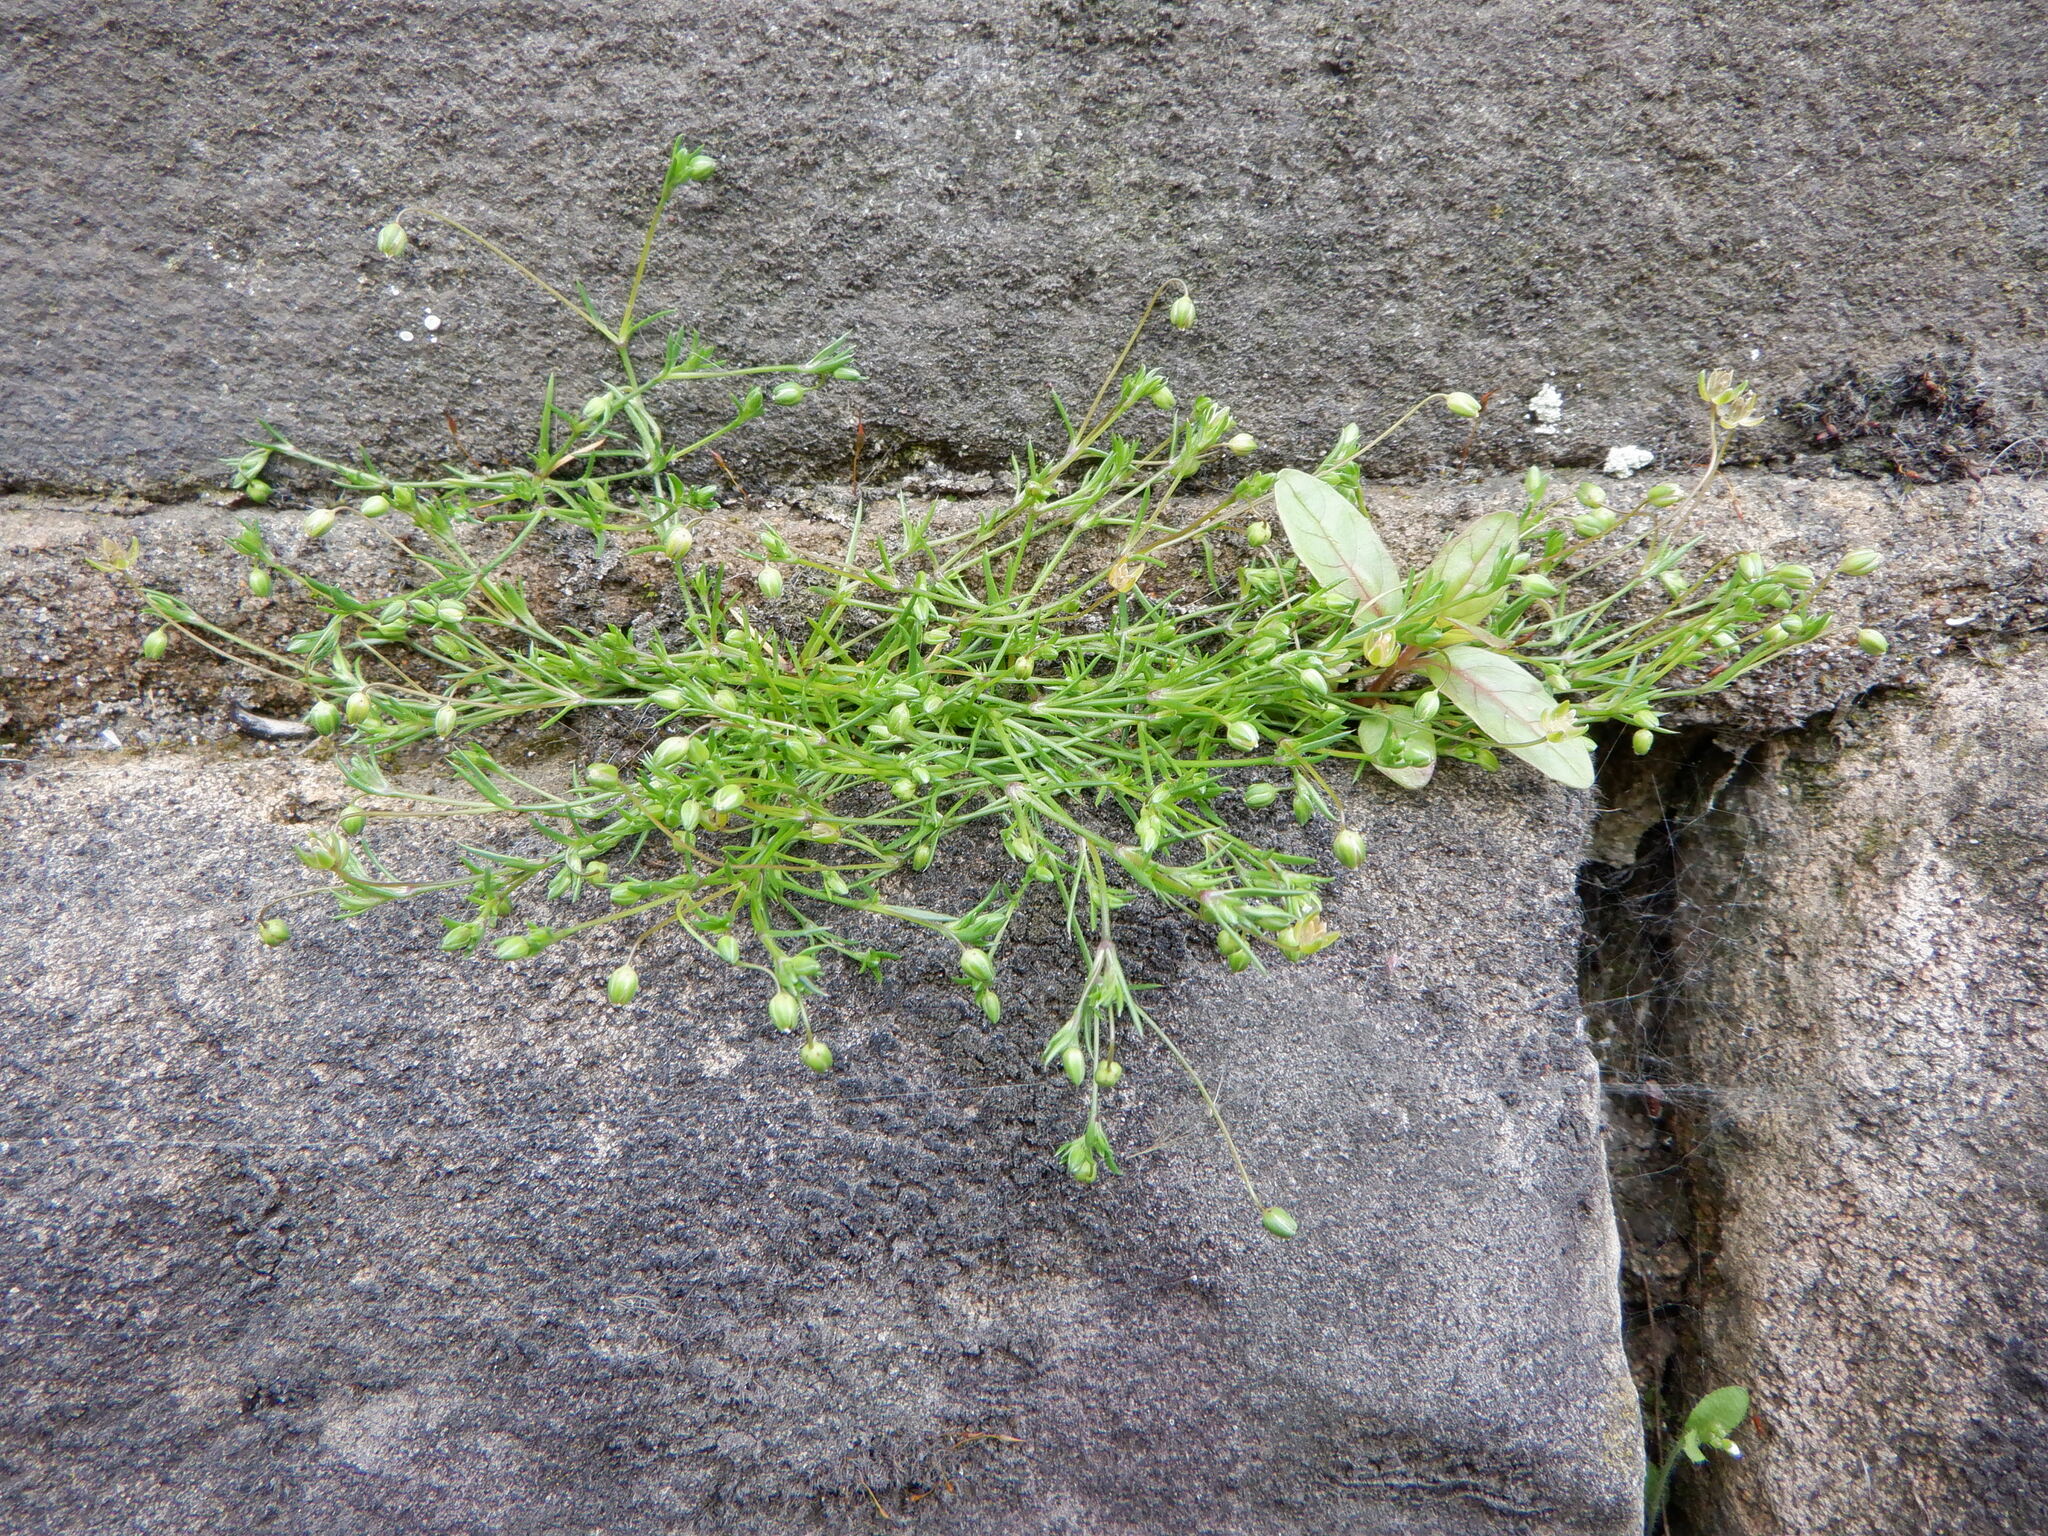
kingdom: Plantae
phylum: Tracheophyta
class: Magnoliopsida
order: Caryophyllales
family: Caryophyllaceae
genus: Sagina
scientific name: Sagina procumbens
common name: Procumbent pearlwort
